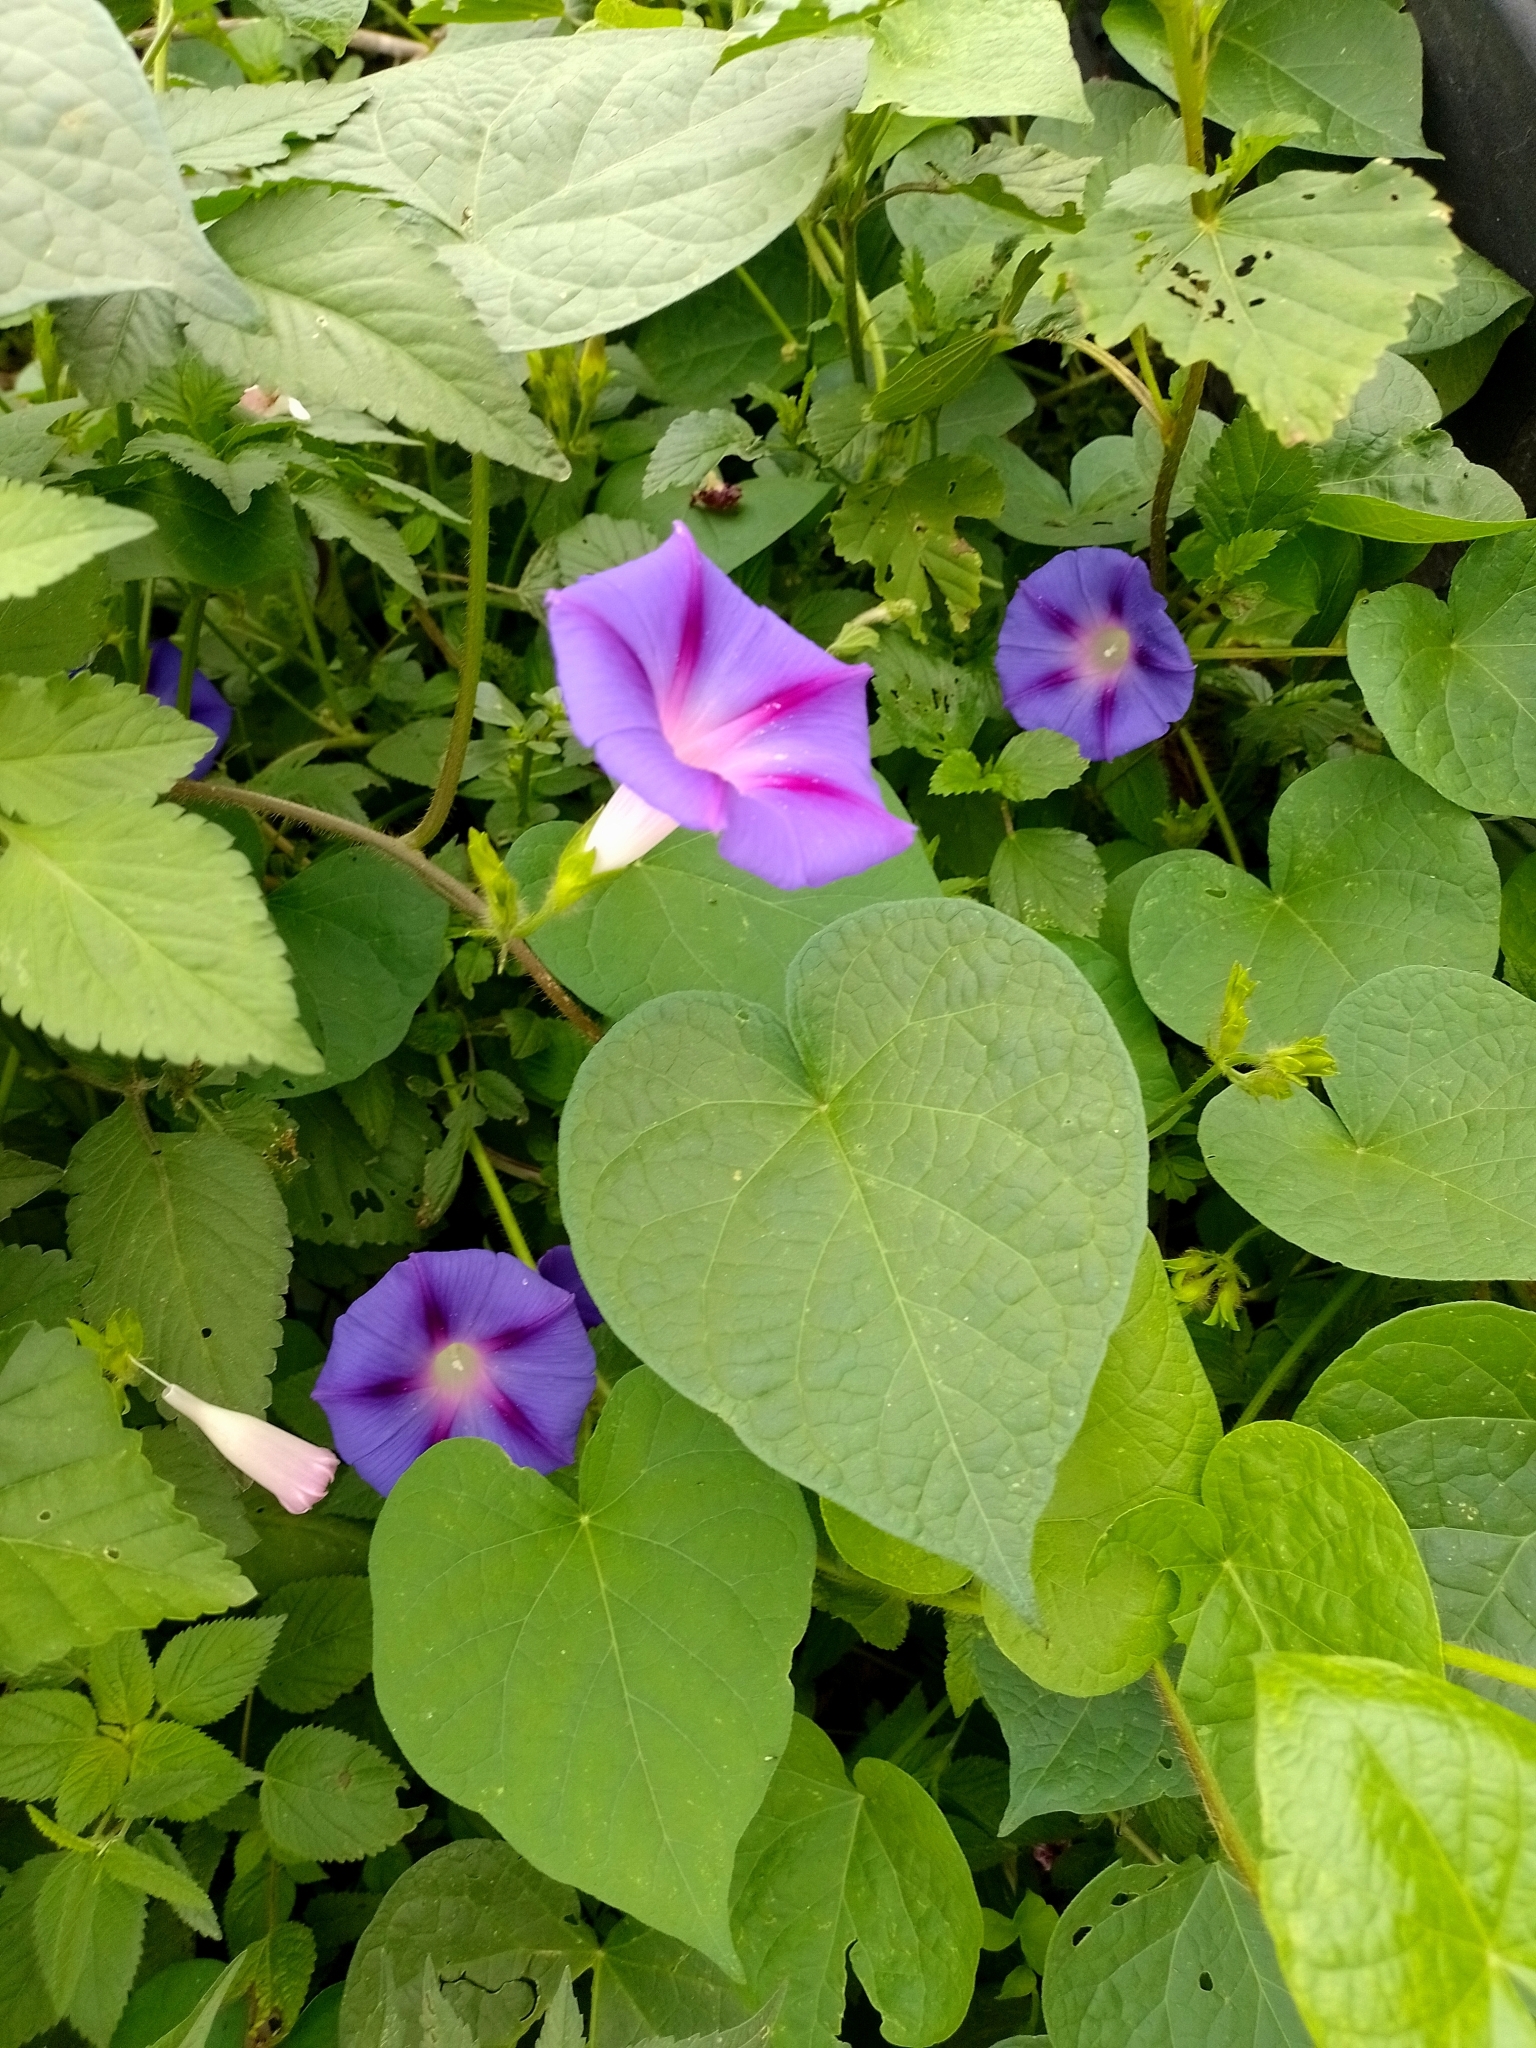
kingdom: Plantae
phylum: Tracheophyta
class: Magnoliopsida
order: Solanales
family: Convolvulaceae
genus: Ipomoea
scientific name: Ipomoea purpurea
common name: Common morning-glory
